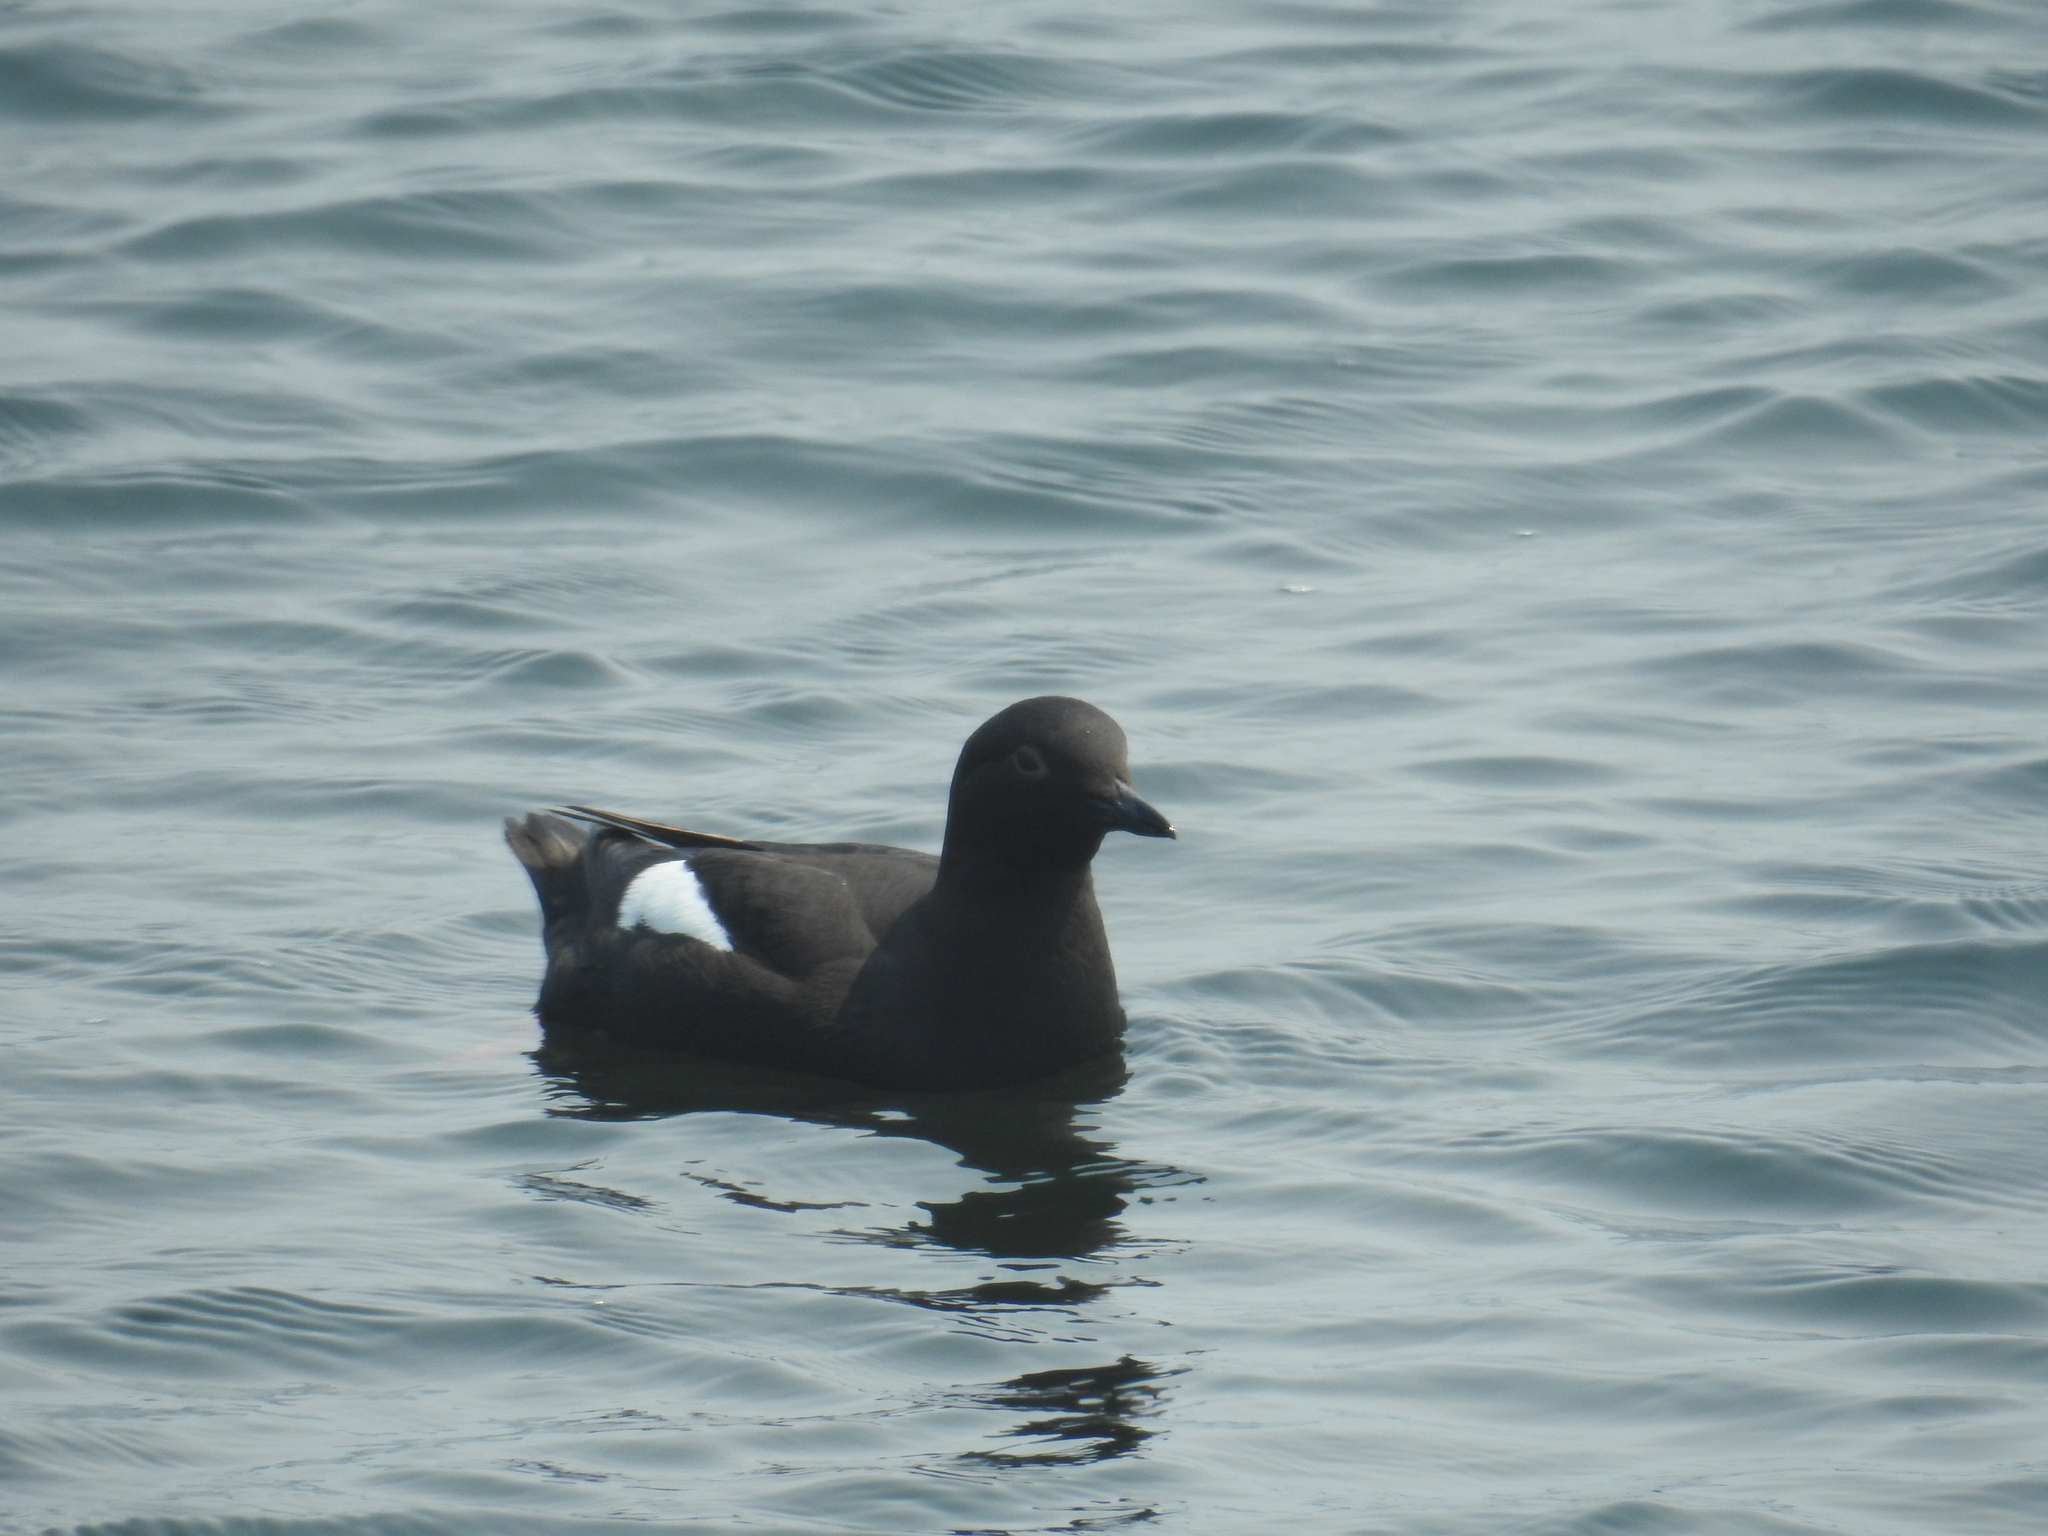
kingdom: Animalia
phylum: Chordata
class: Aves
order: Charadriiformes
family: Alcidae
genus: Cepphus
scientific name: Cepphus columba
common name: Pigeon guillemot
